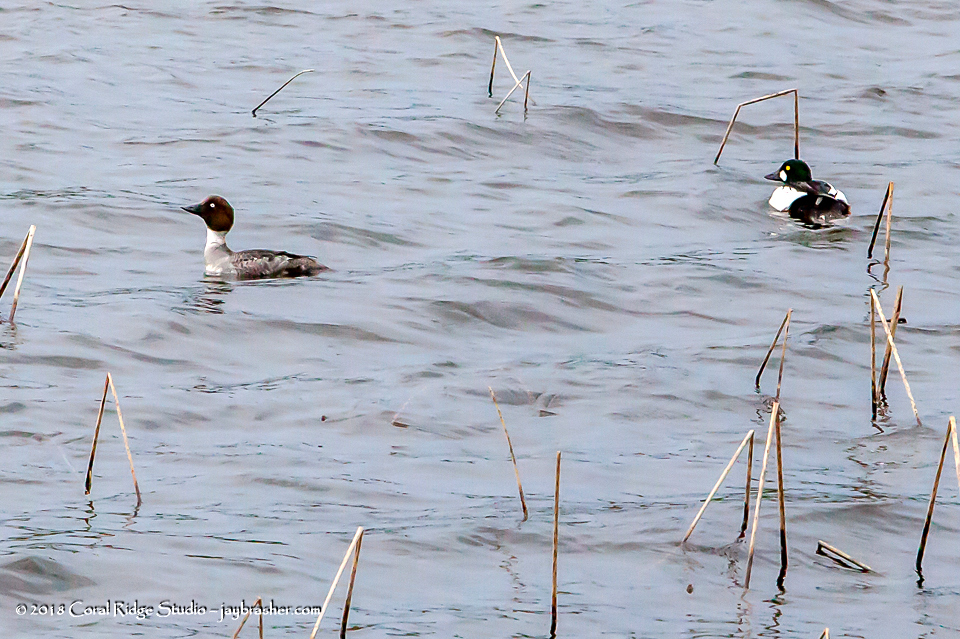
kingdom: Animalia
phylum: Chordata
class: Aves
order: Anseriformes
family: Anatidae
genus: Bucephala
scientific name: Bucephala clangula
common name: Common goldeneye
